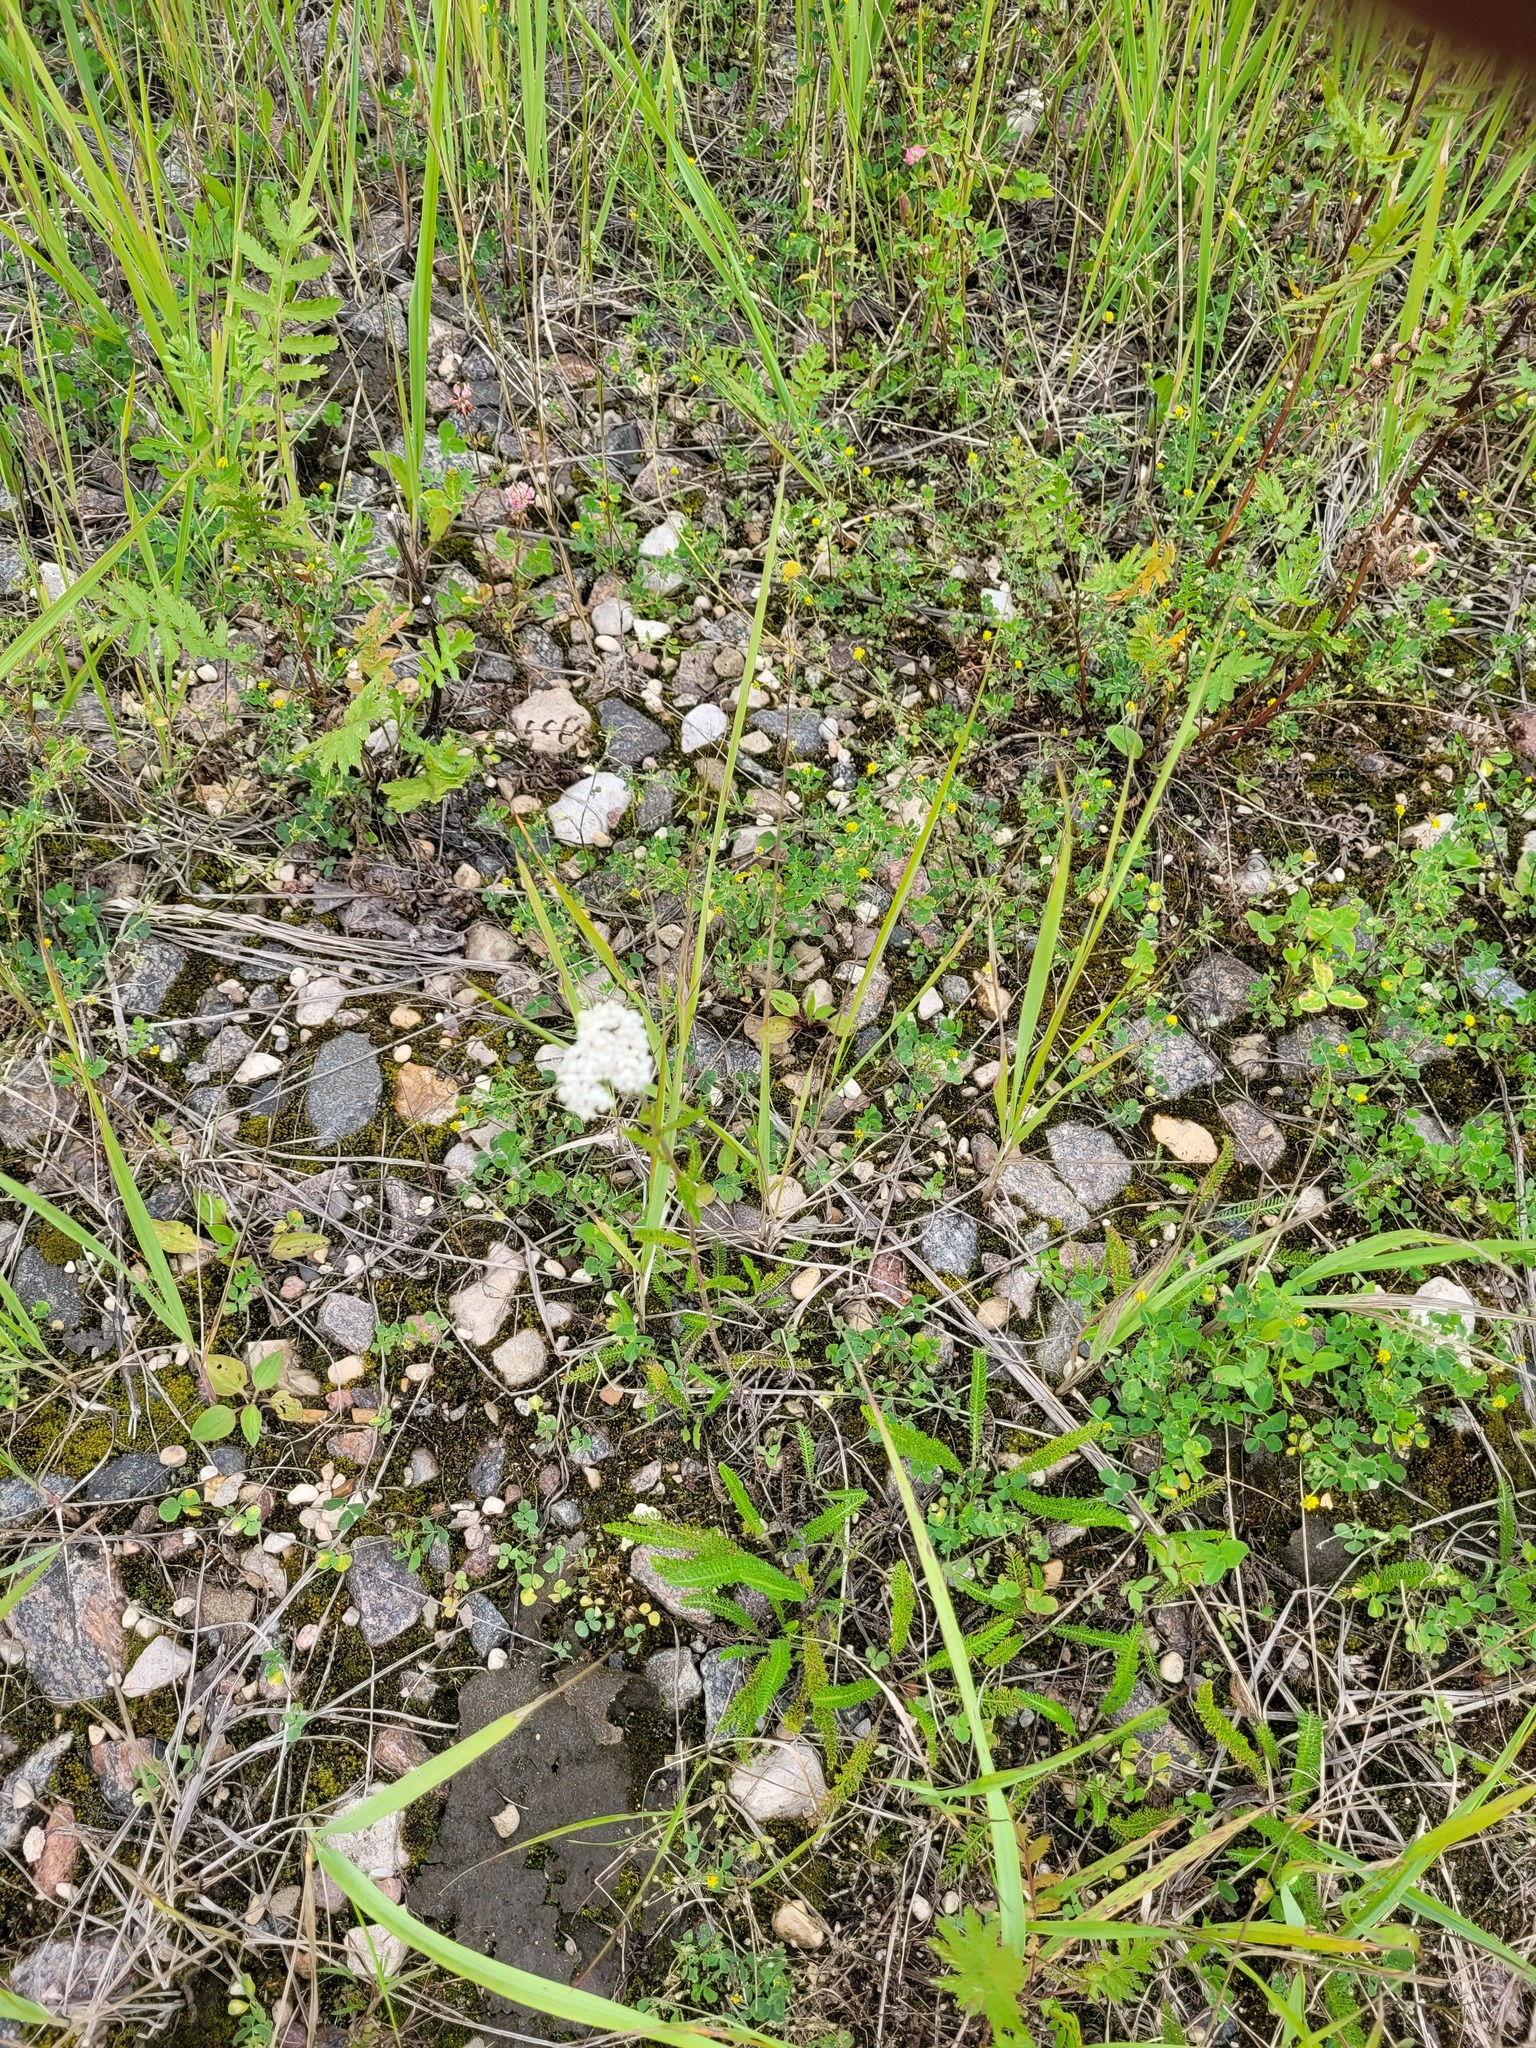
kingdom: Plantae
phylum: Tracheophyta
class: Magnoliopsida
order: Asterales
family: Asteraceae
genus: Achillea
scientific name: Achillea millefolium
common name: Yarrow
